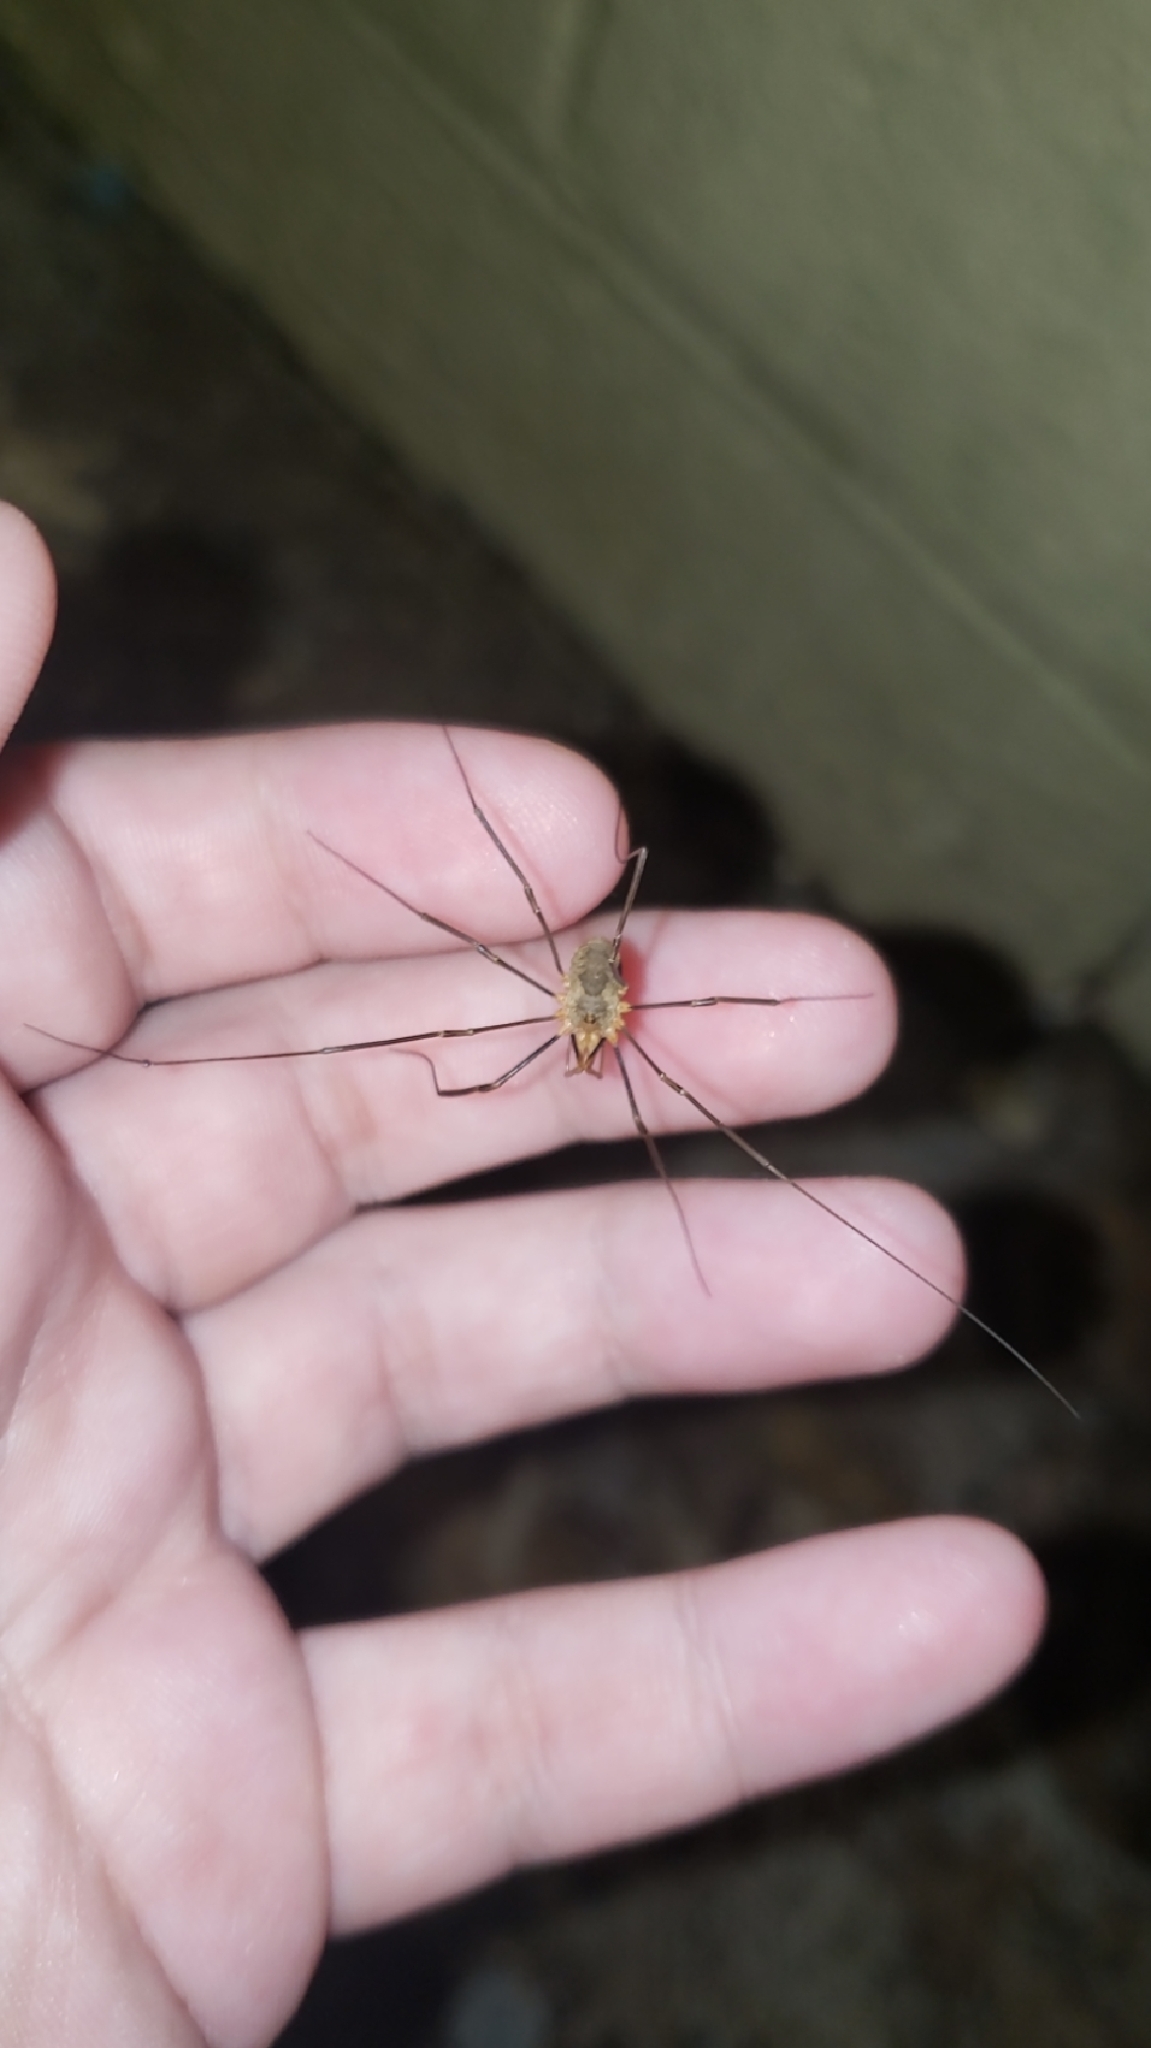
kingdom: Animalia
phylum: Arthropoda
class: Arachnida
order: Opiliones
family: Phalangiidae
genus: Phalangium
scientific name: Phalangium opilio
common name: Daddy longleg
